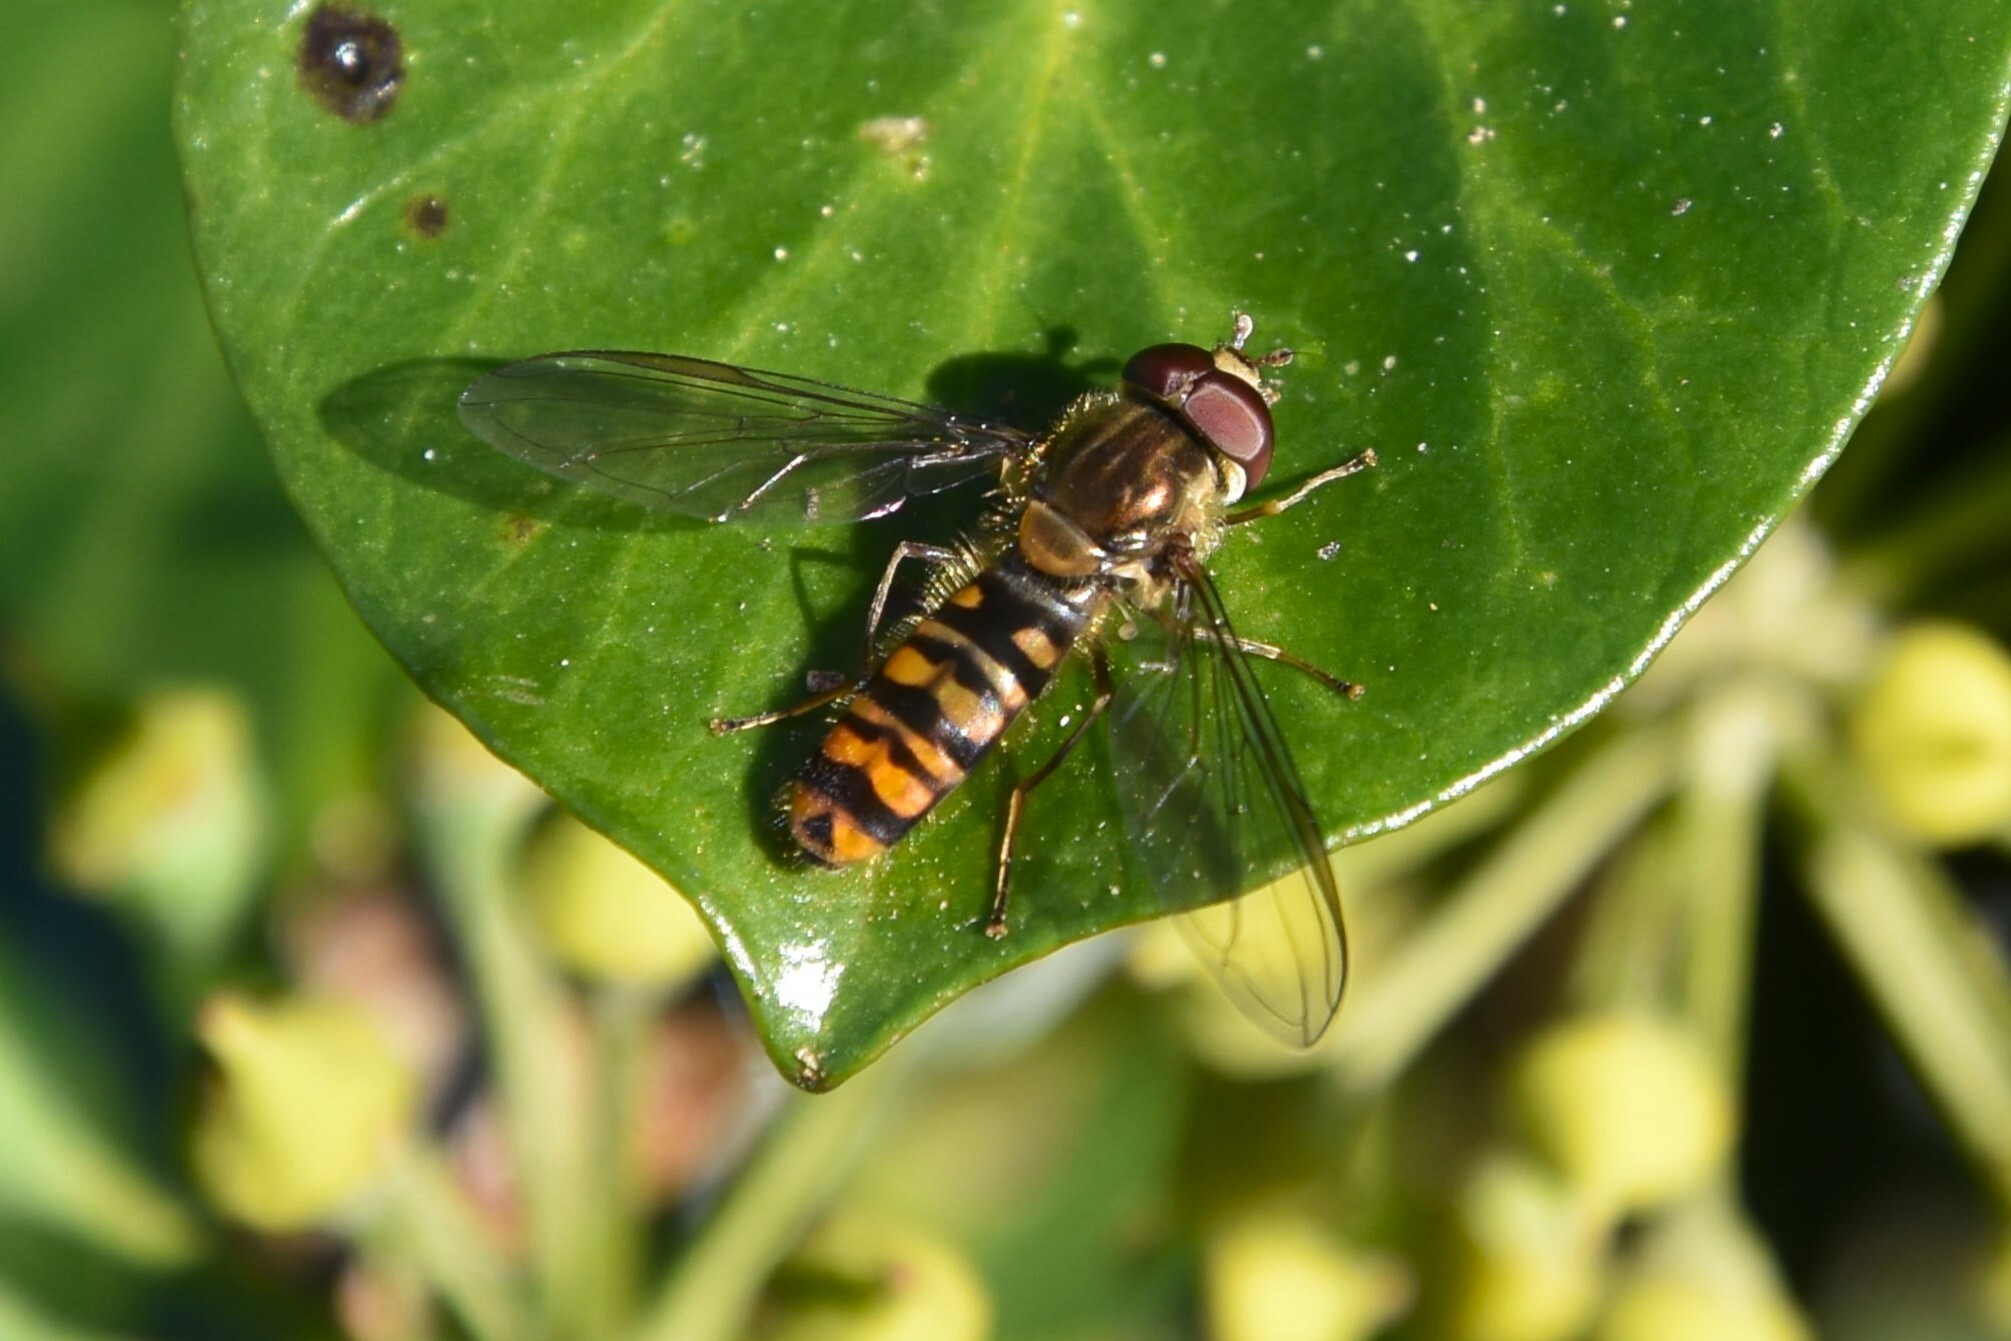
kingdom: Animalia
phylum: Arthropoda
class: Insecta
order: Diptera
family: Syrphidae
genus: Episyrphus
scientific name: Episyrphus balteatus
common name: Marmalade hoverfly
